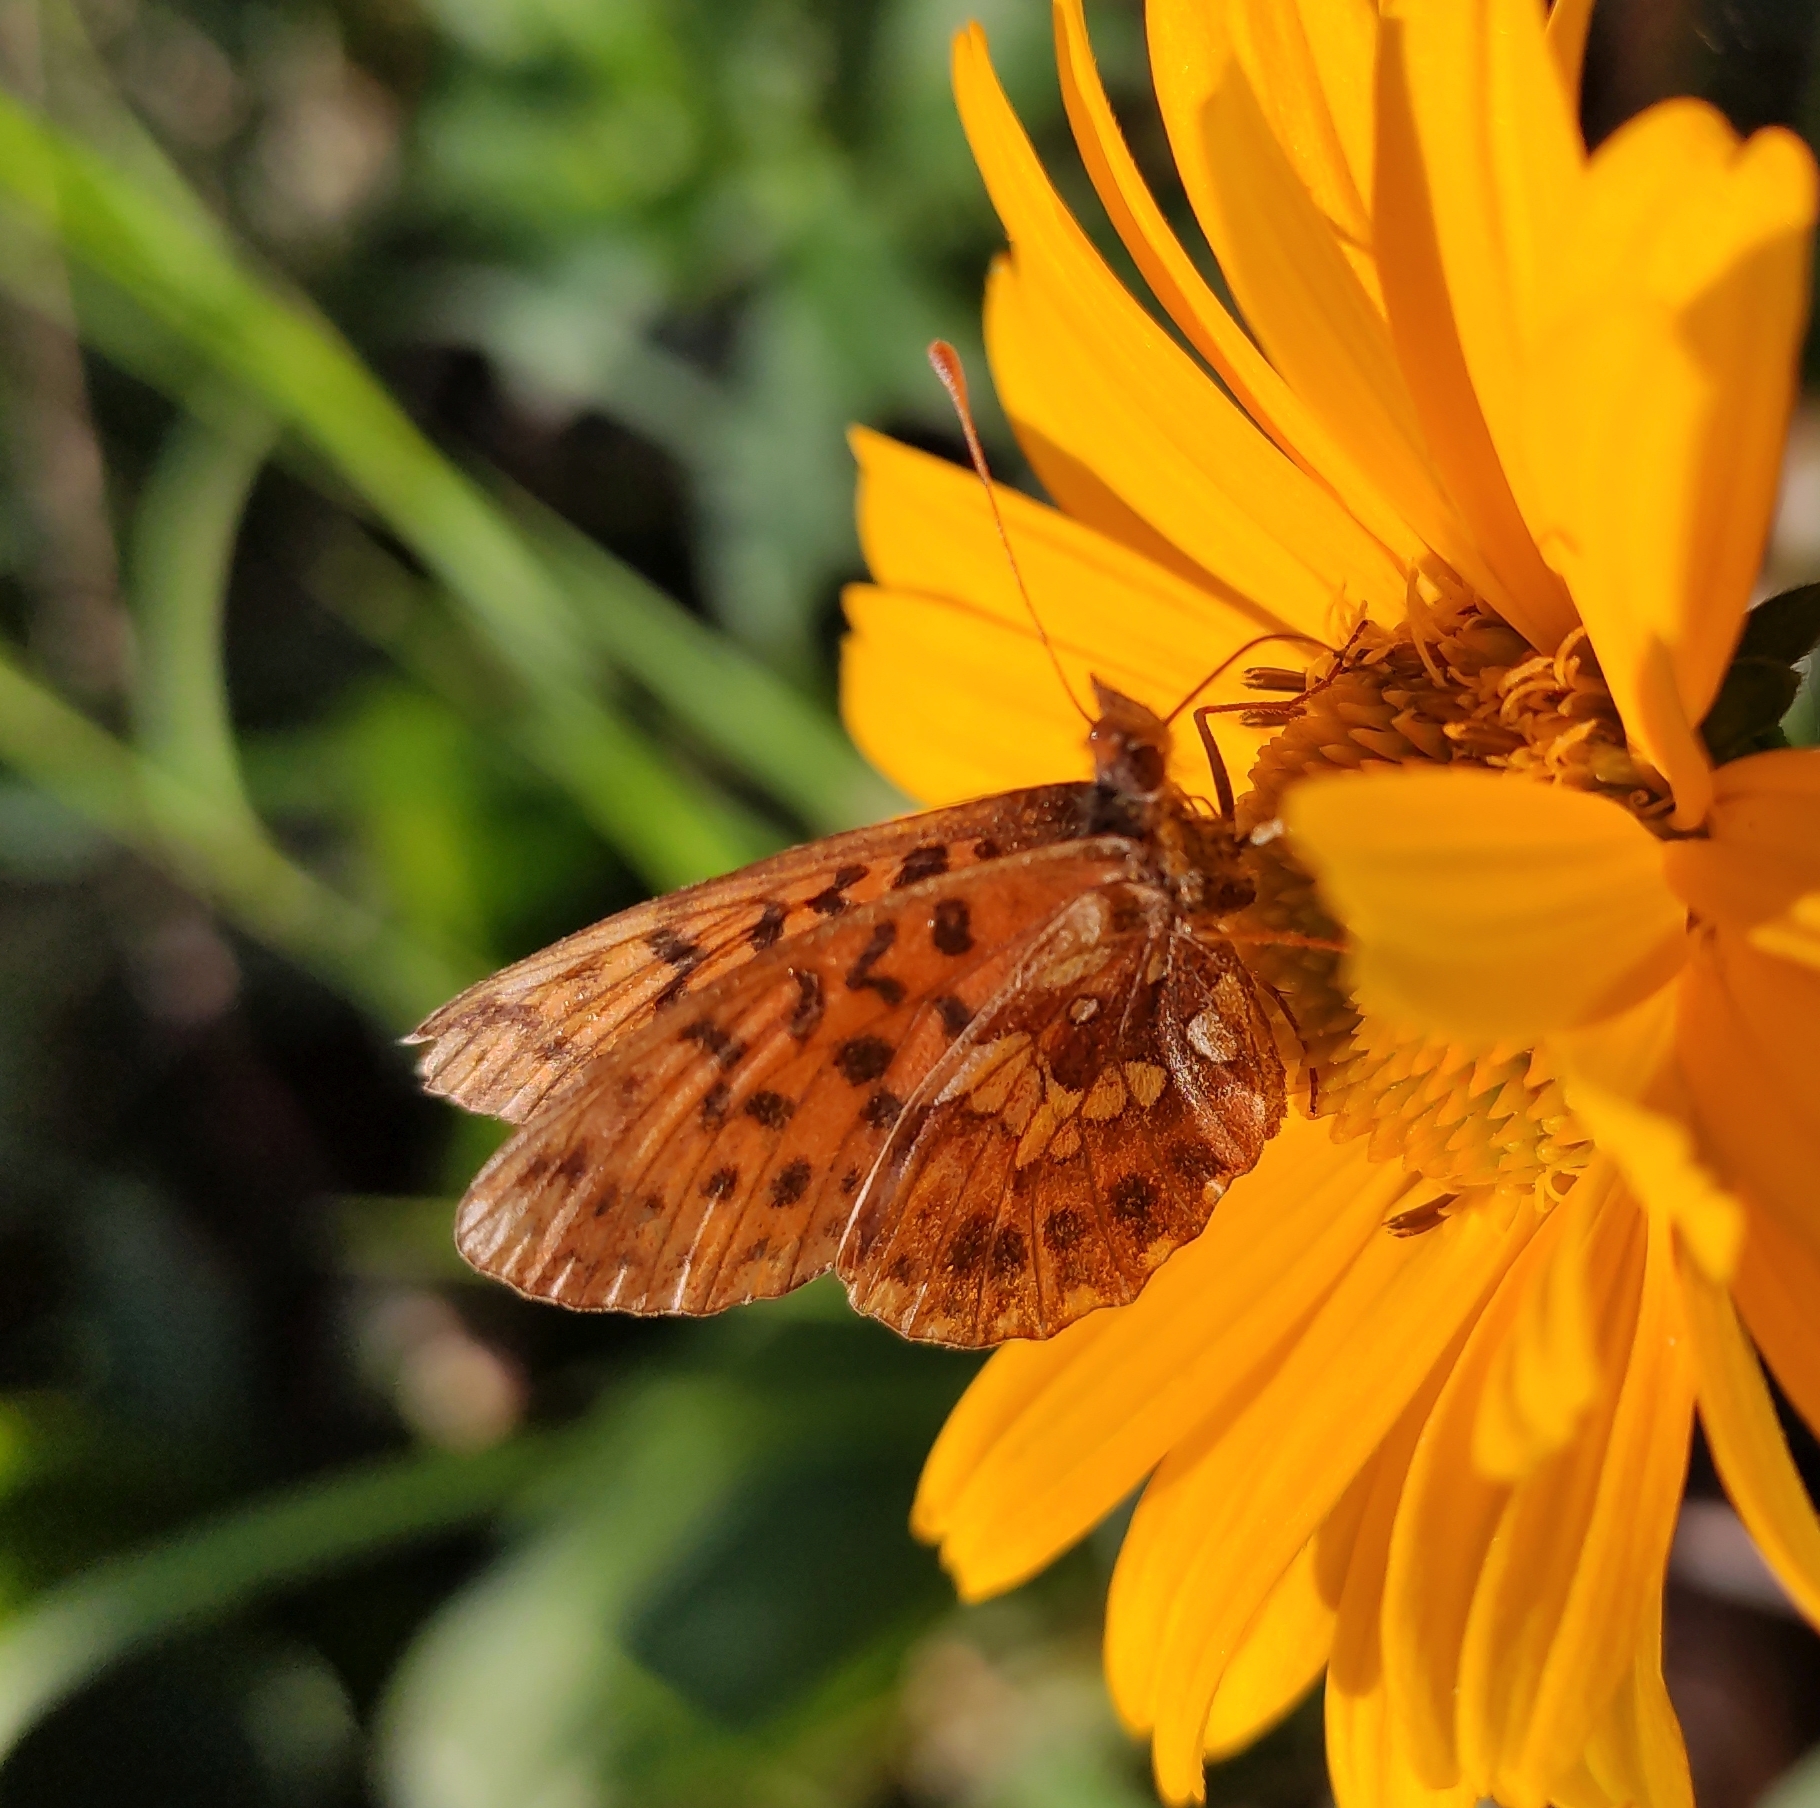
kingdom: Animalia
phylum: Arthropoda
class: Insecta
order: Lepidoptera
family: Nymphalidae
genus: Boloria
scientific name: Boloria dia
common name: Weaver's fritillary
